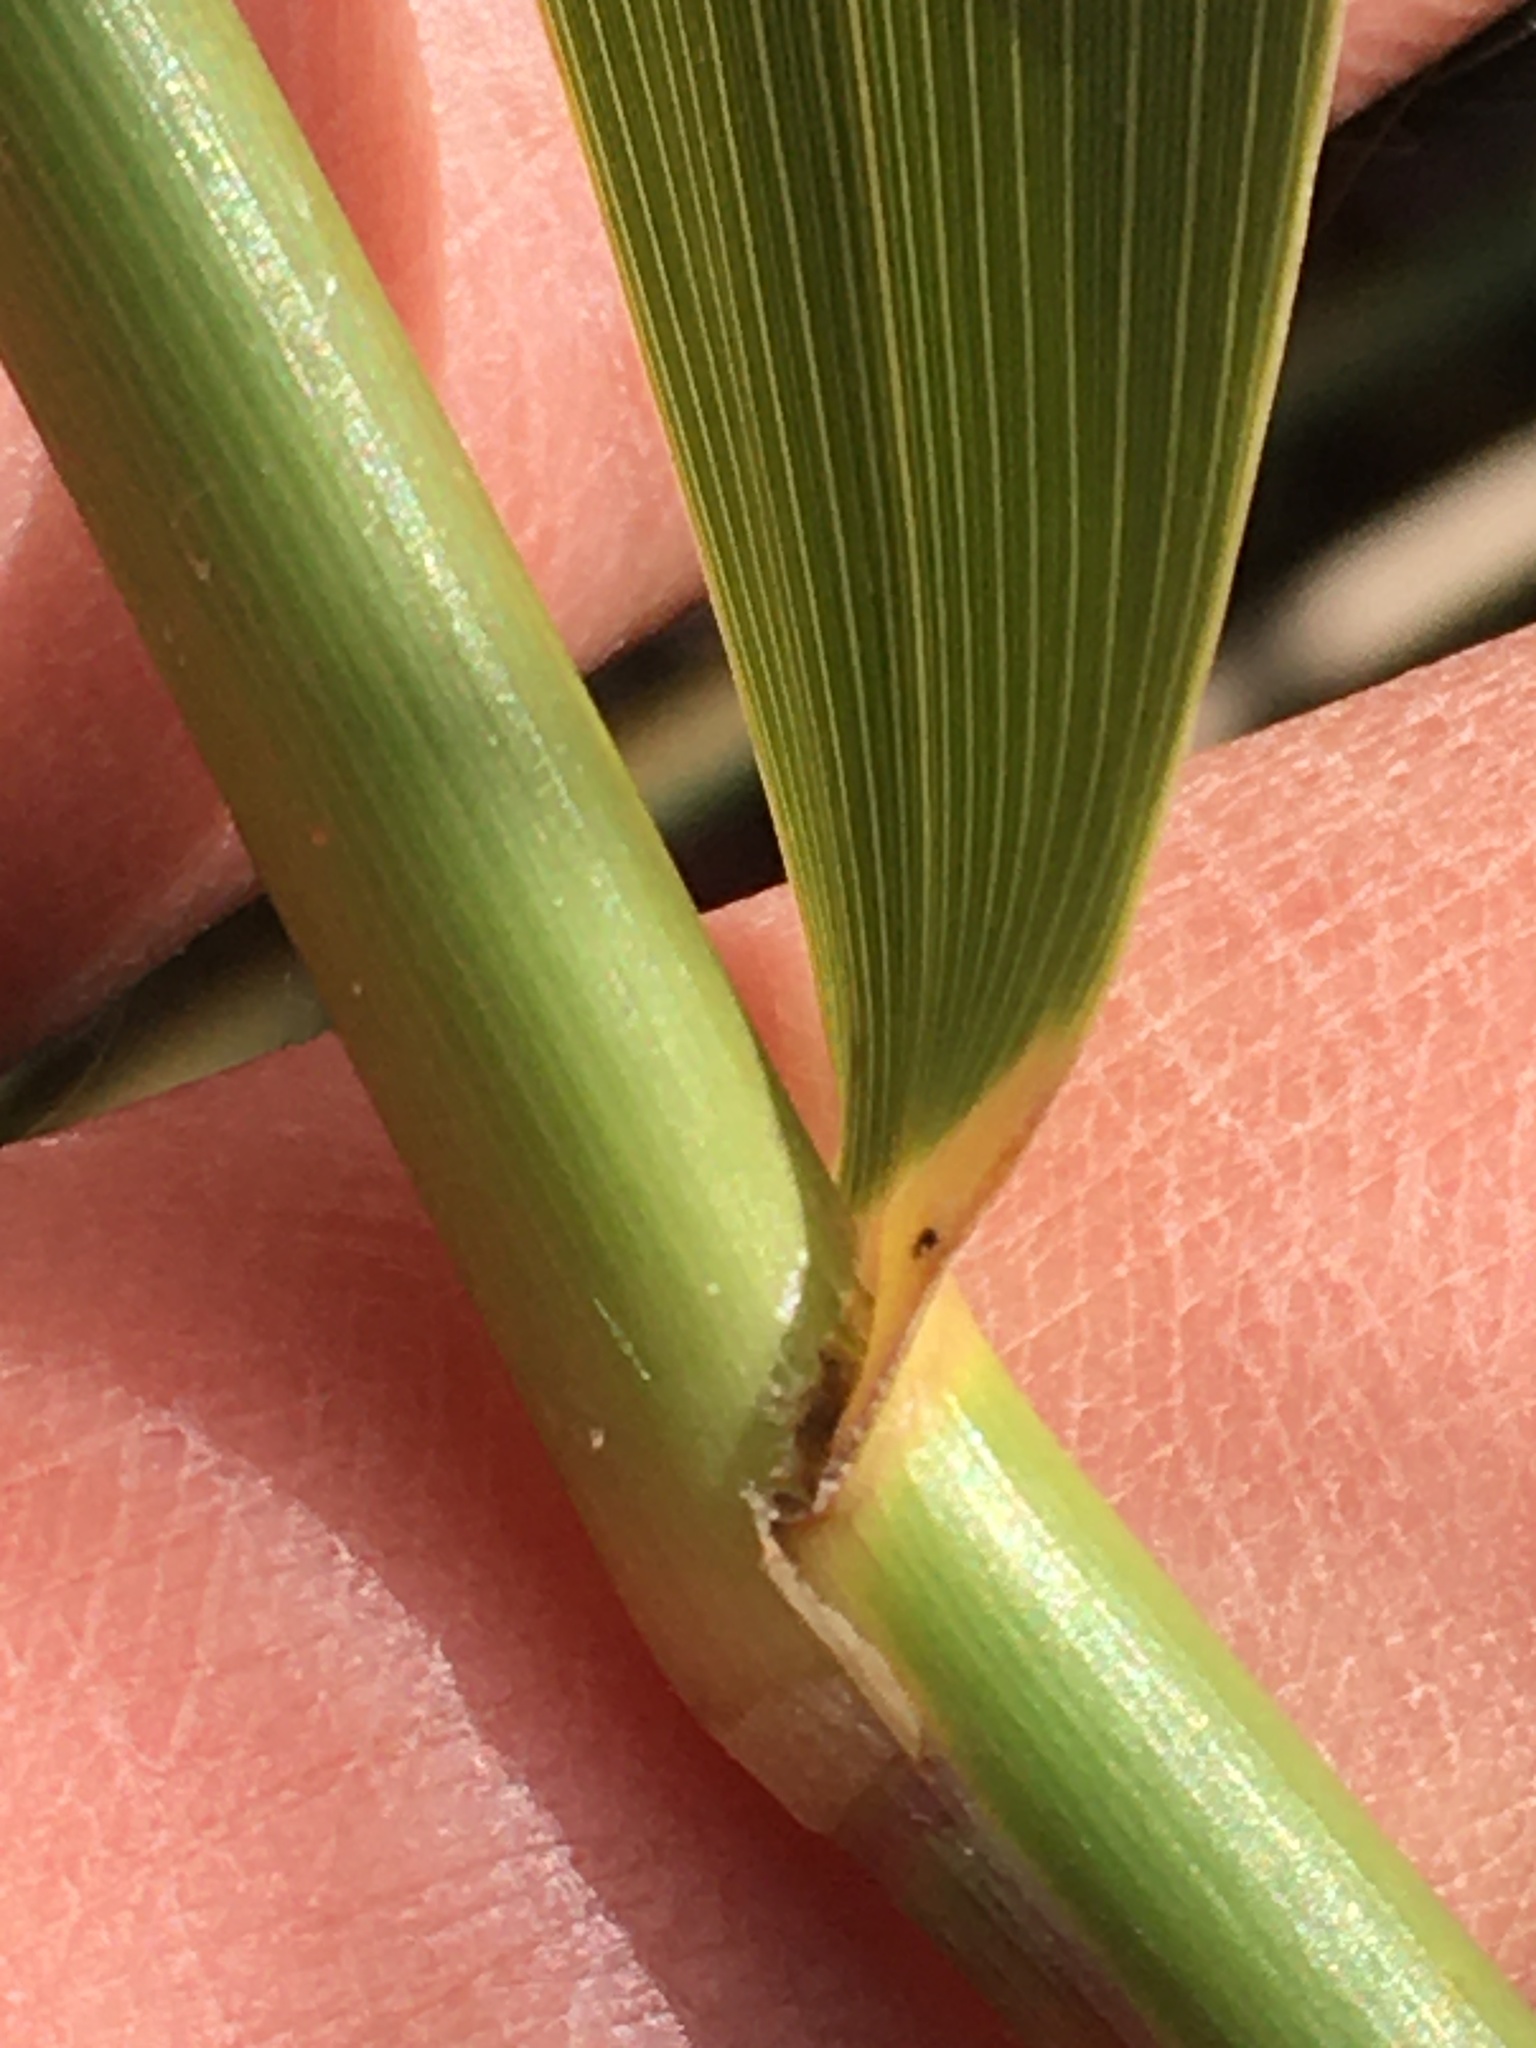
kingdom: Plantae
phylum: Tracheophyta
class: Liliopsida
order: Poales
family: Poaceae
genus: Phragmites
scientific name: Phragmites australis
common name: Common reed
